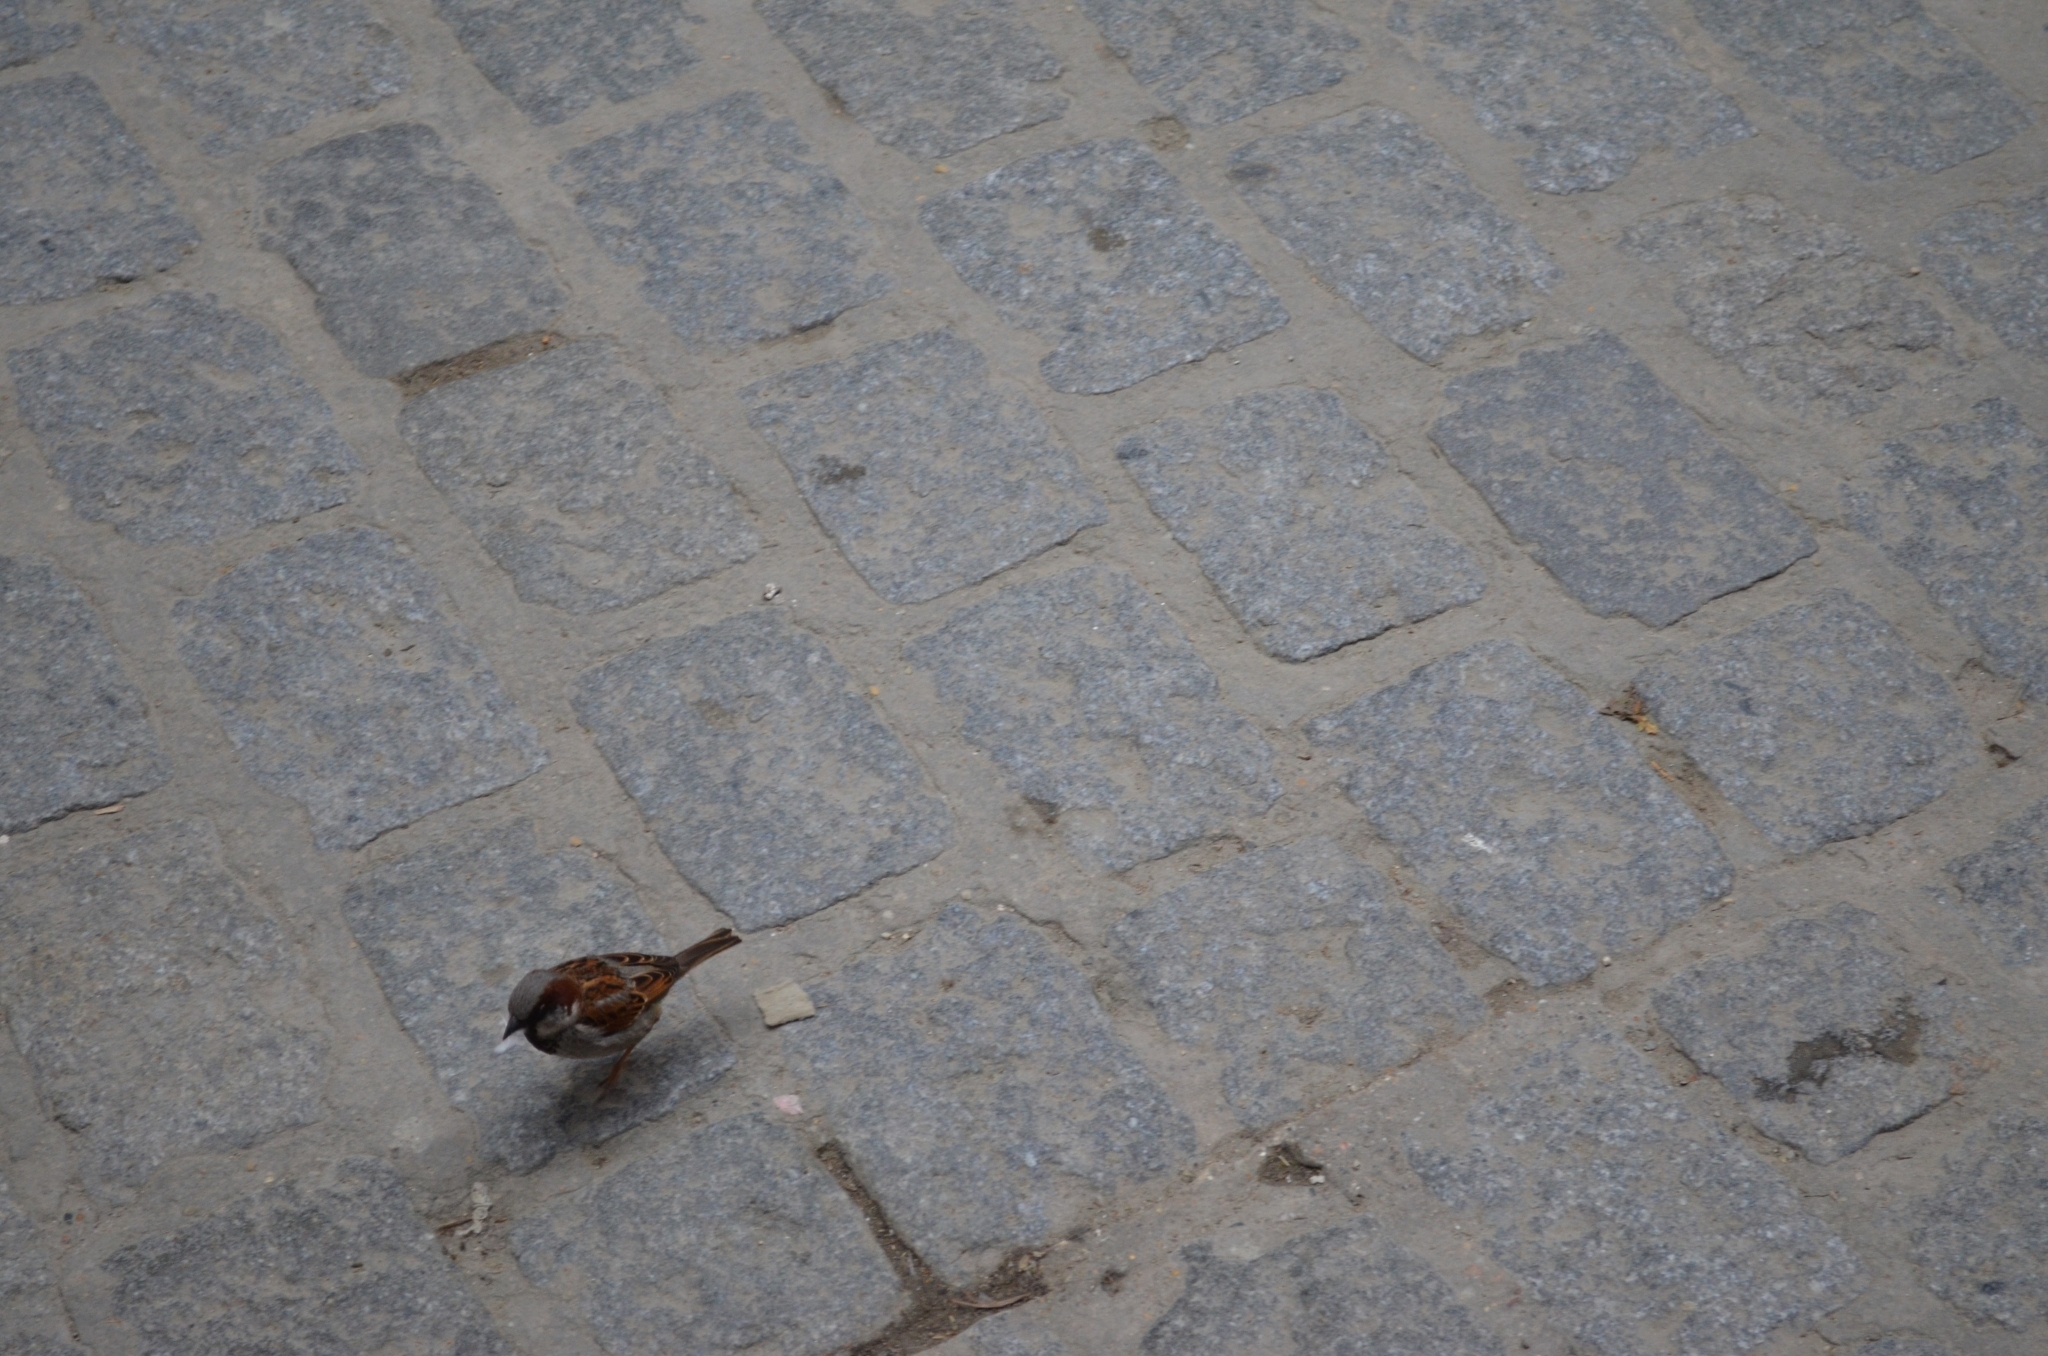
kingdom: Animalia
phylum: Chordata
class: Aves
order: Passeriformes
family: Passeridae
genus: Passer
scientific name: Passer domesticus
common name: House sparrow
